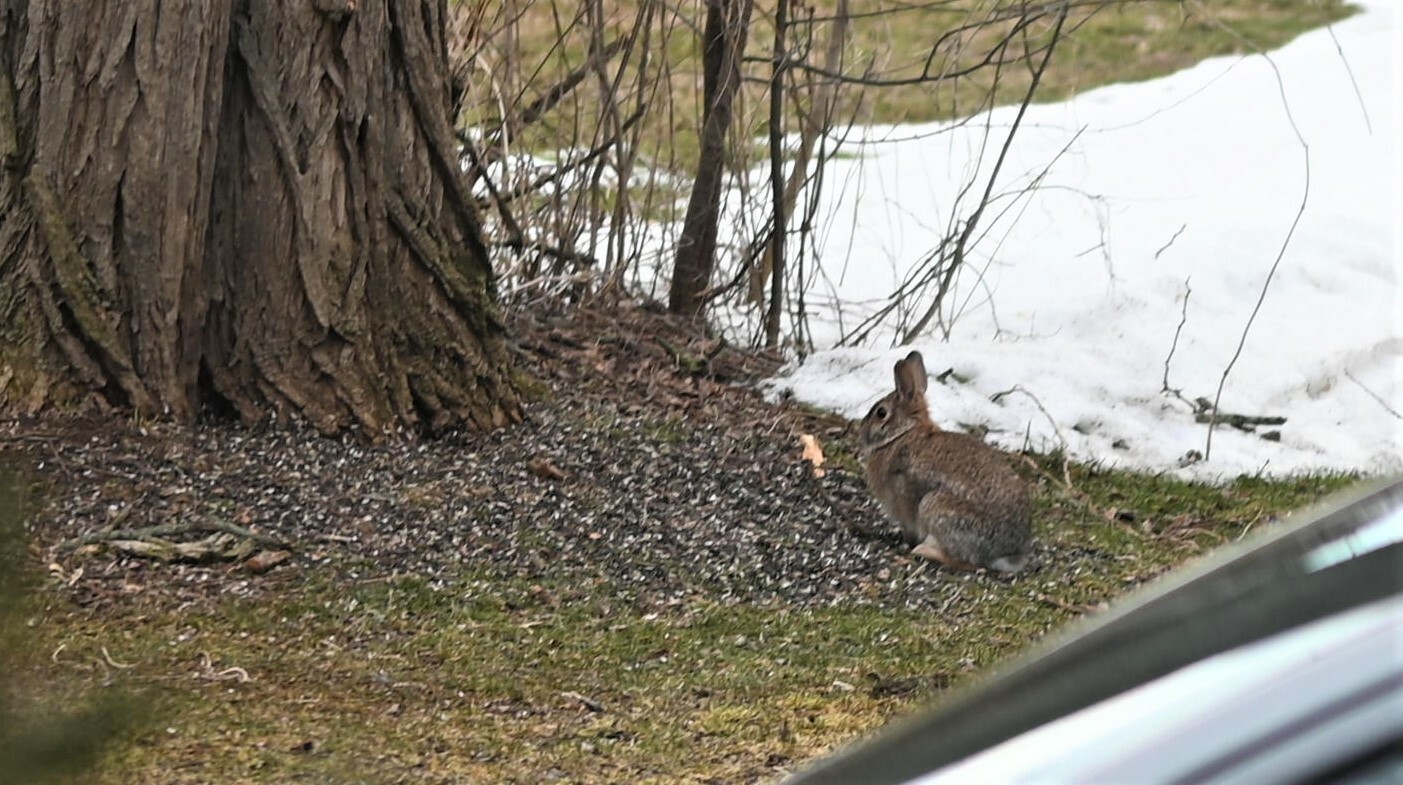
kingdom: Animalia
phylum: Chordata
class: Mammalia
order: Lagomorpha
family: Leporidae
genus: Sylvilagus
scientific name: Sylvilagus floridanus
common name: Eastern cottontail
